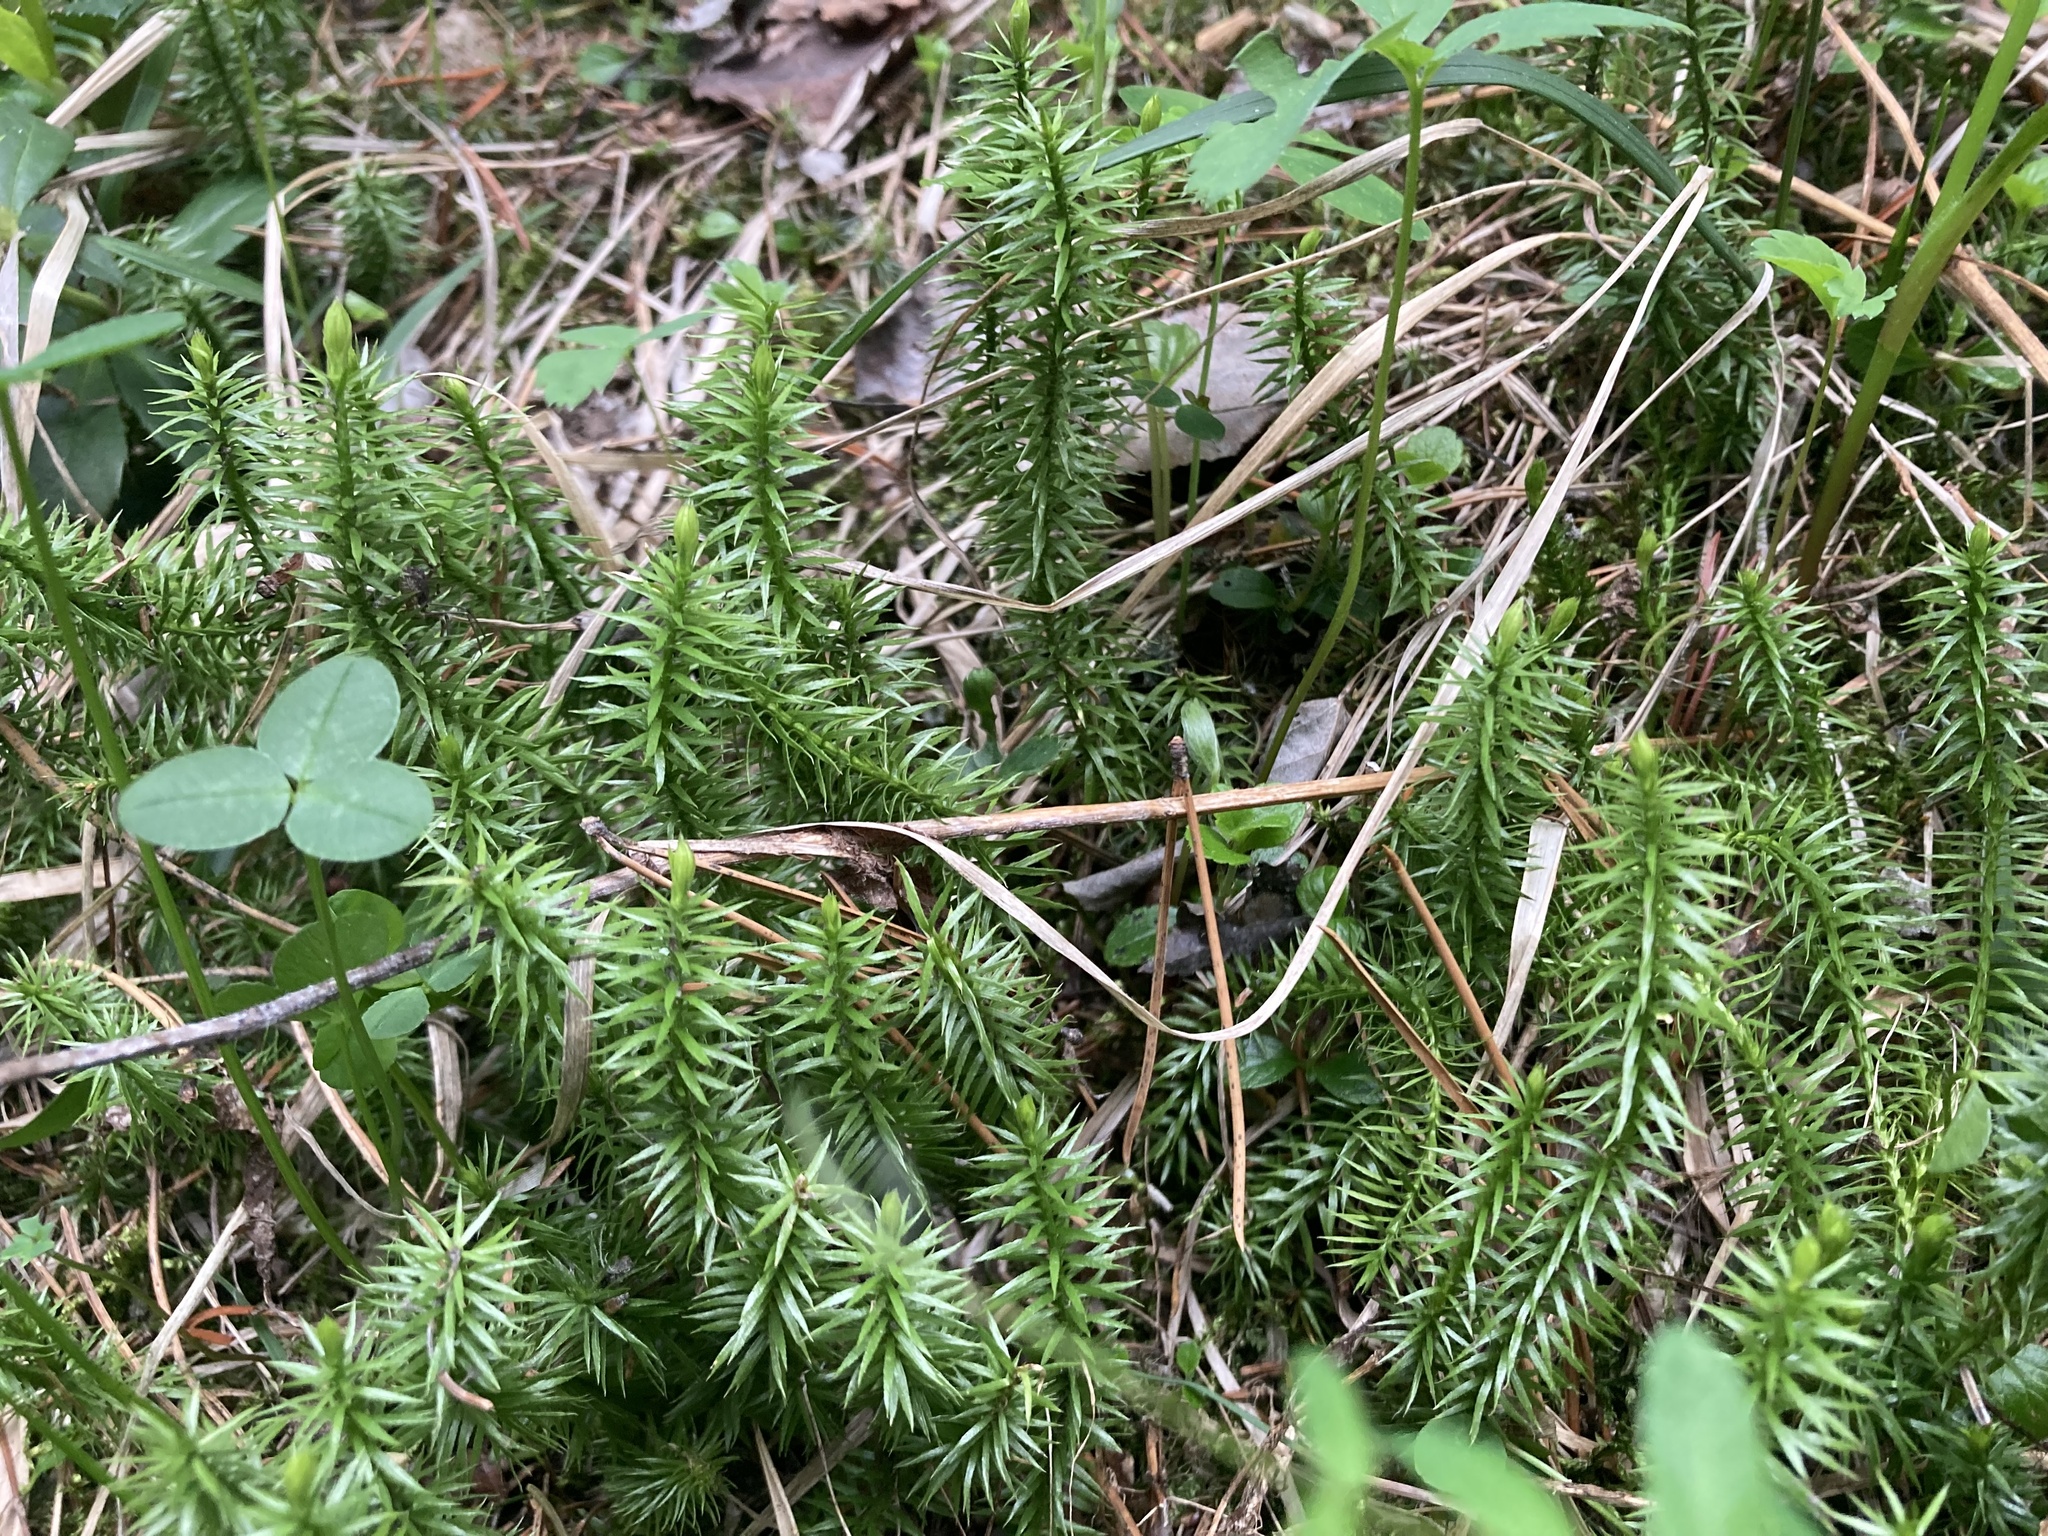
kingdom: Plantae
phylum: Tracheophyta
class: Lycopodiopsida
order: Lycopodiales
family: Lycopodiaceae
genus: Spinulum
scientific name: Spinulum annotinum
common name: Interrupted club-moss
